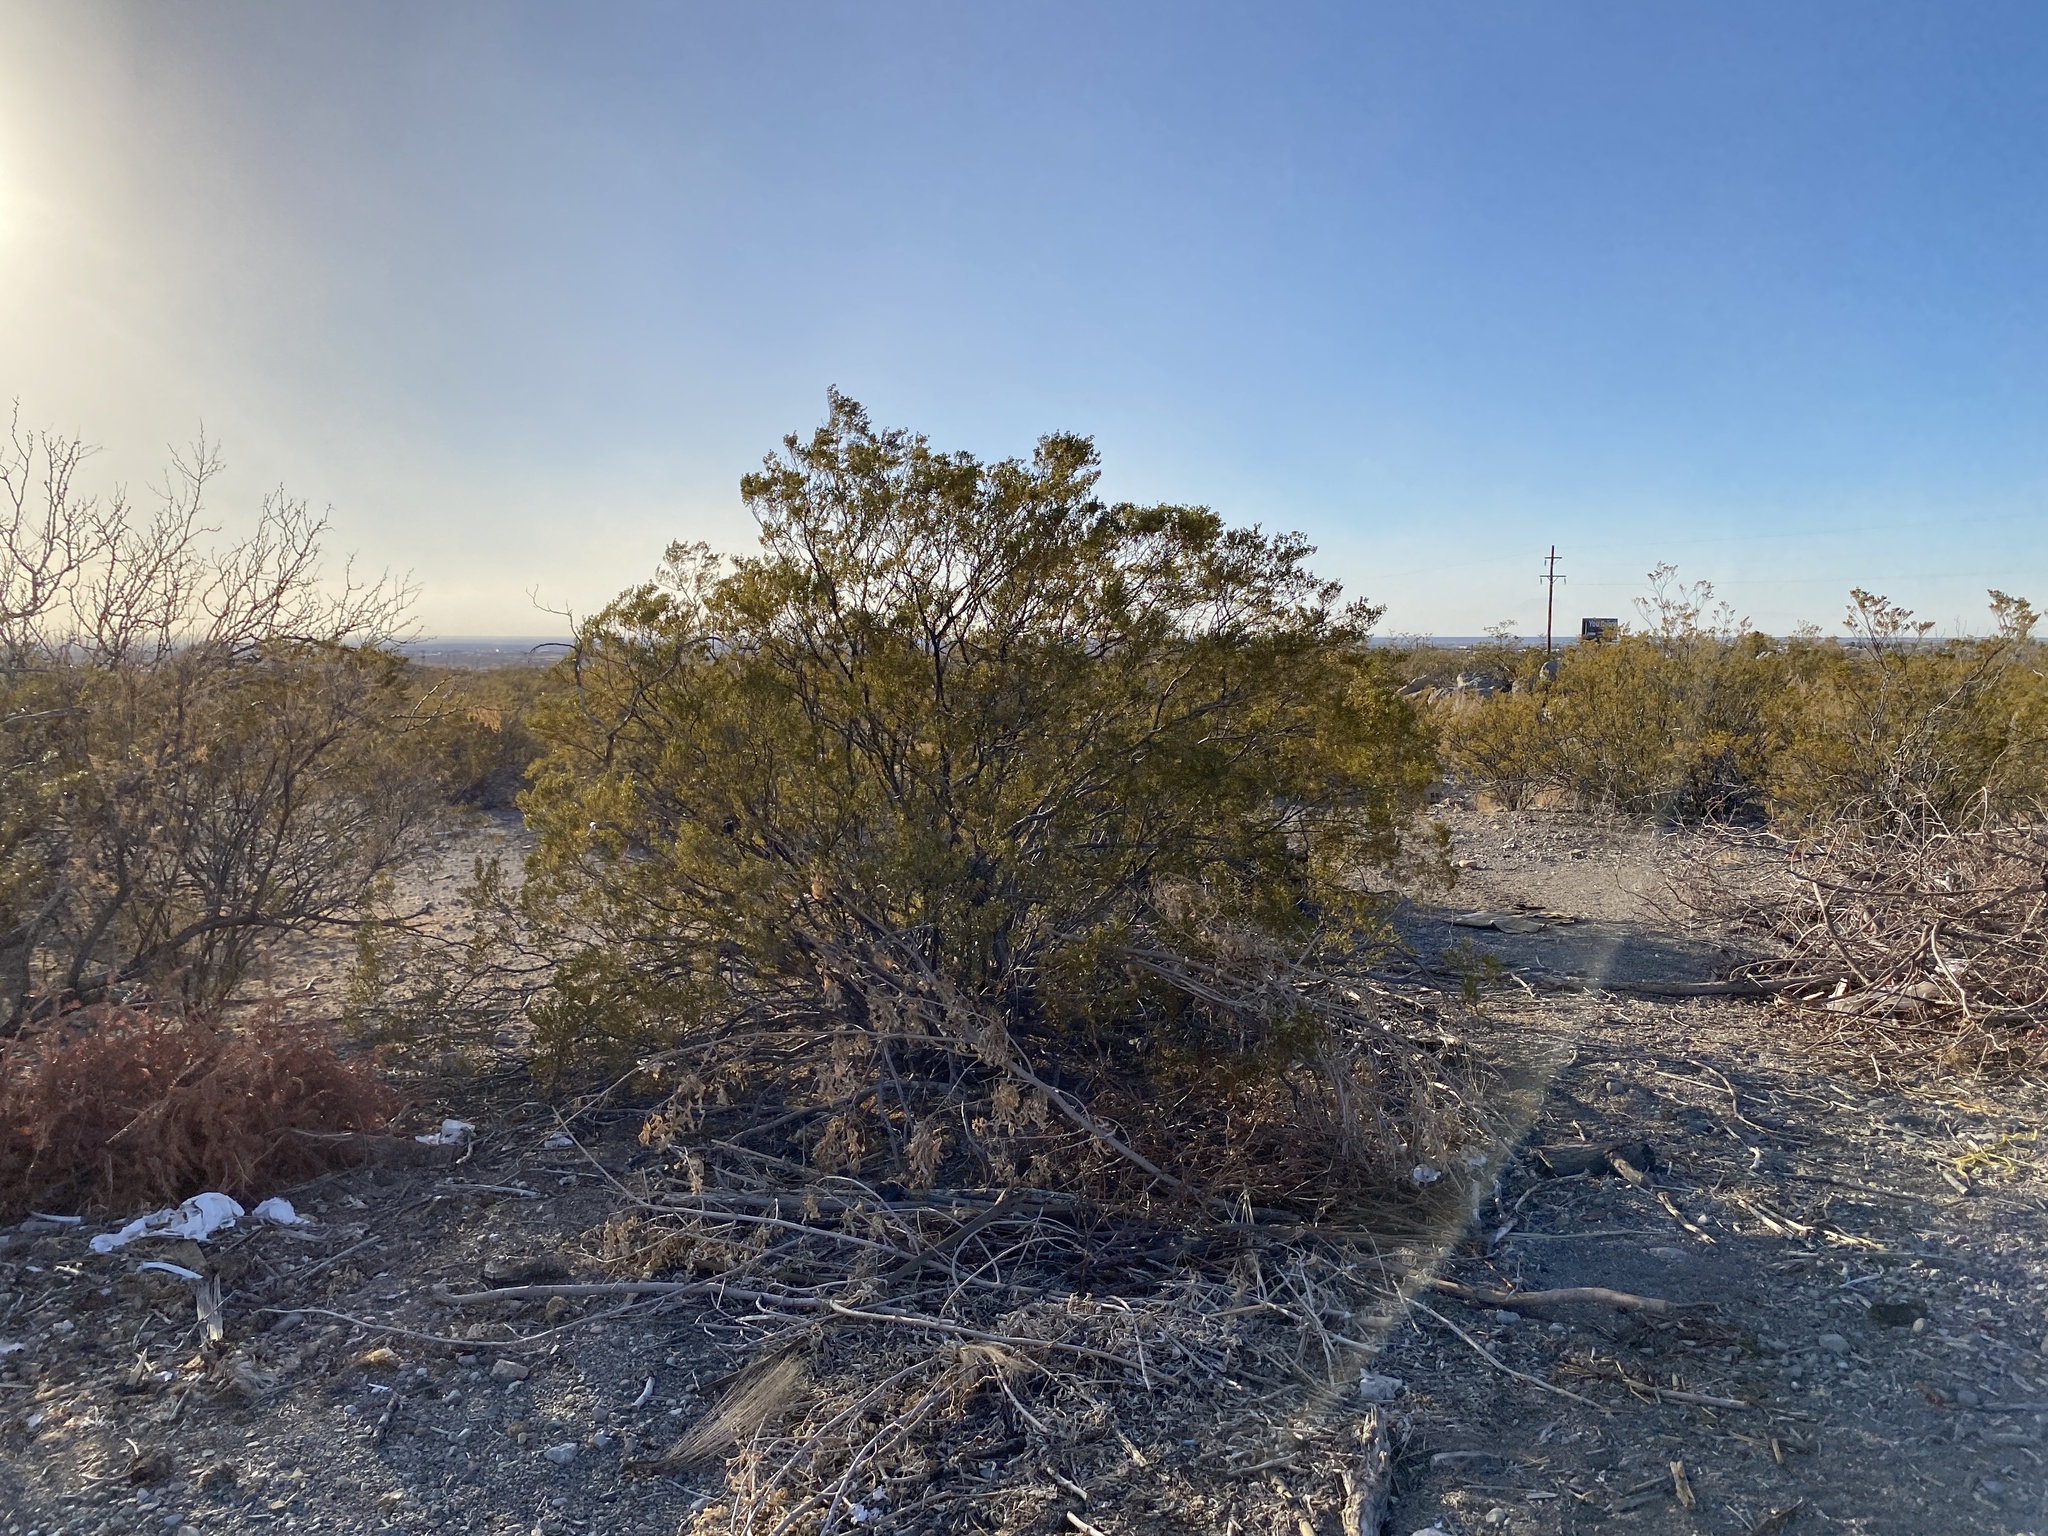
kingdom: Plantae
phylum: Tracheophyta
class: Magnoliopsida
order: Zygophyllales
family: Zygophyllaceae
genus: Larrea
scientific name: Larrea tridentata
